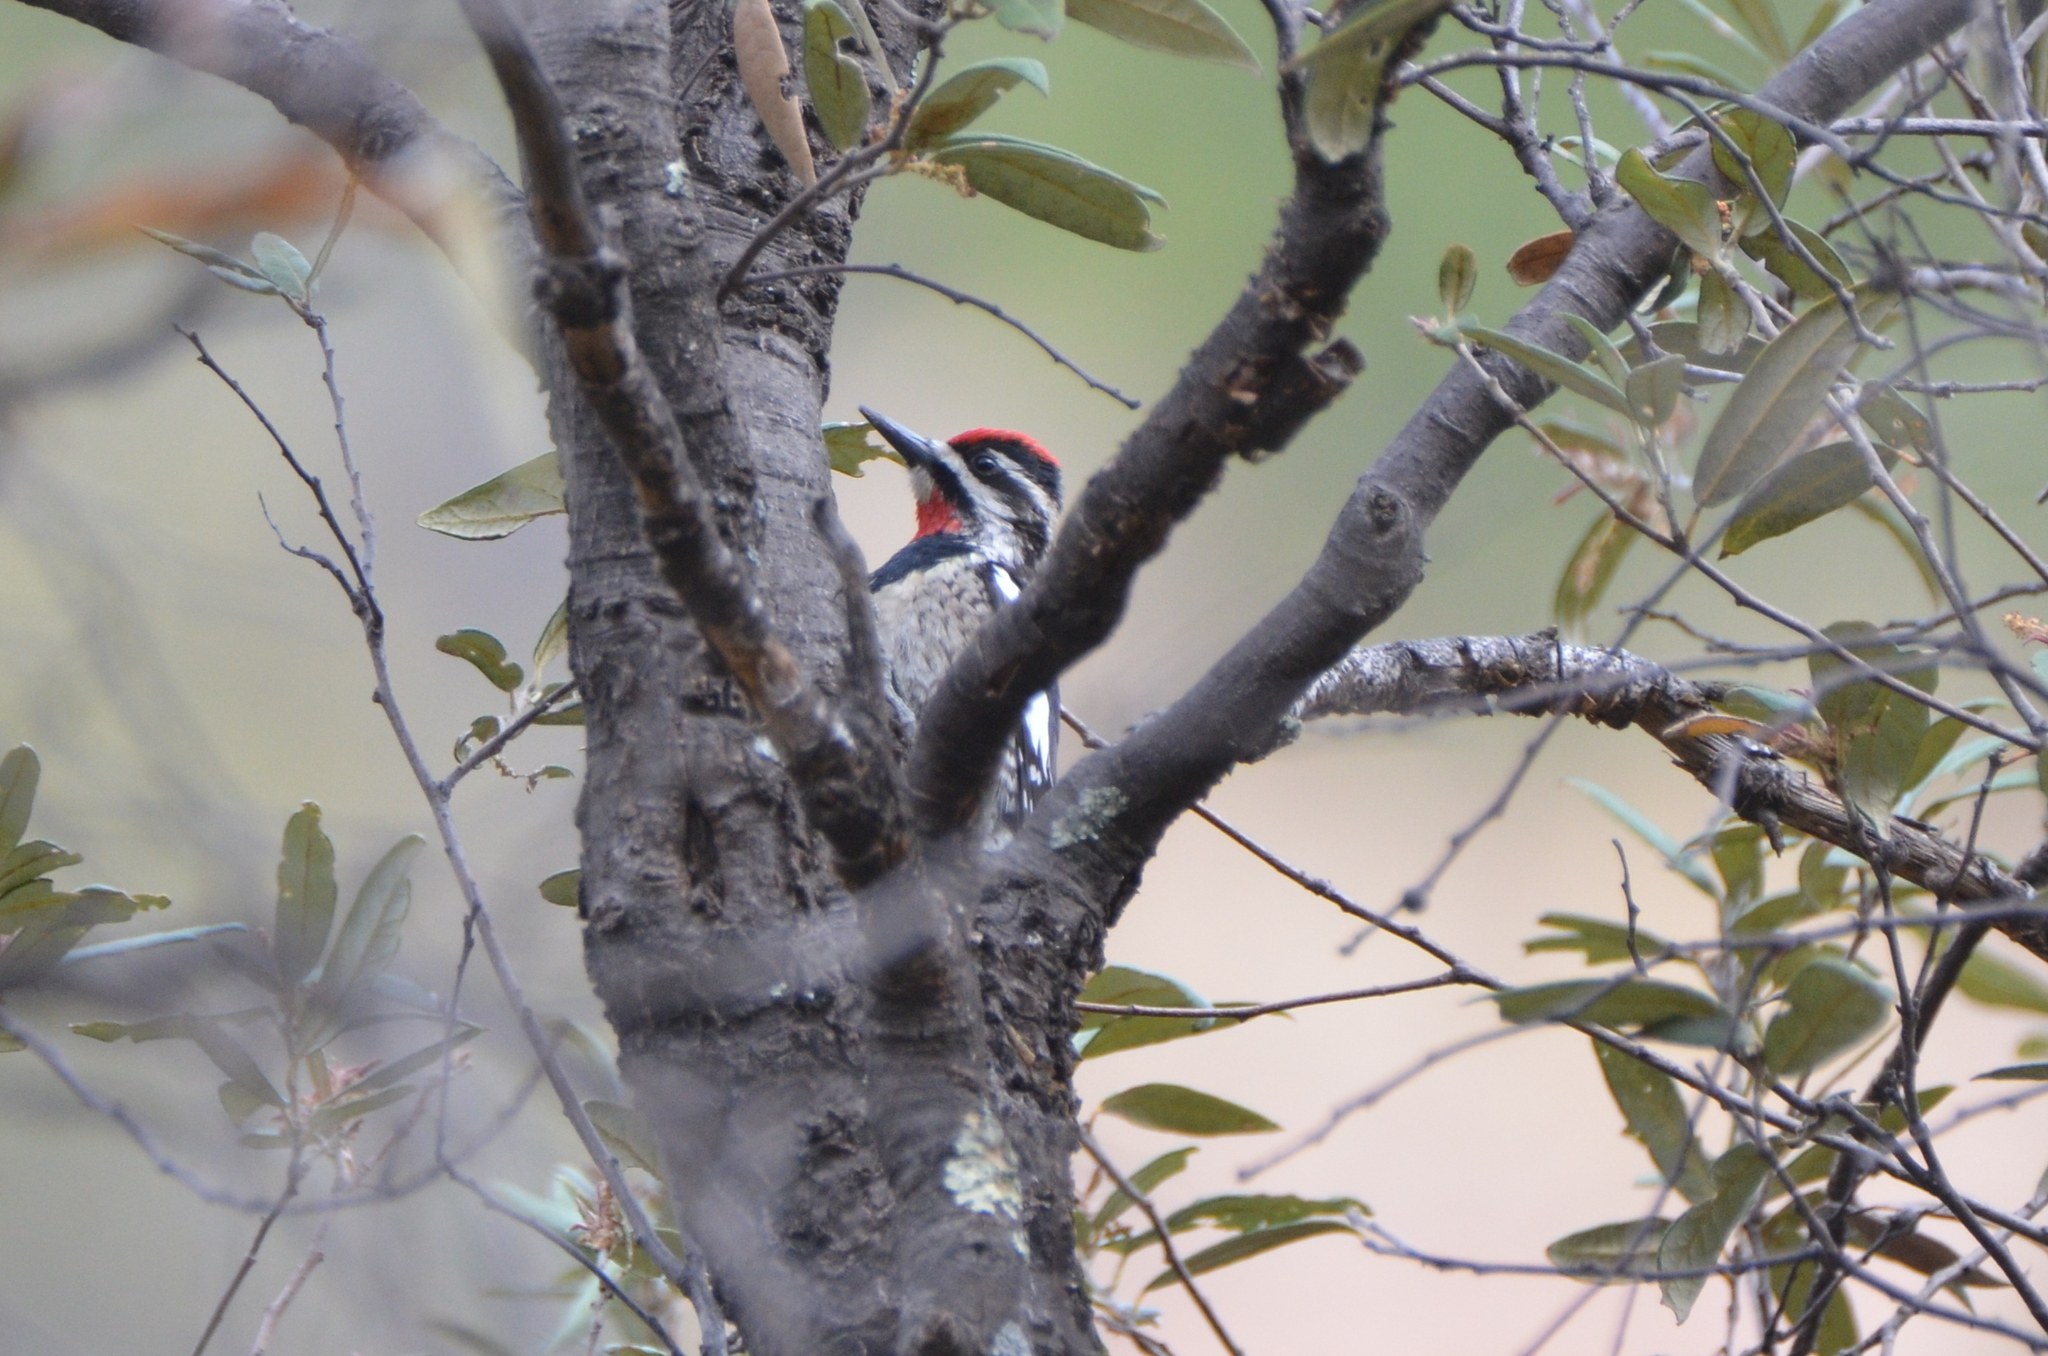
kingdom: Animalia
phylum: Chordata
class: Aves
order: Piciformes
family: Picidae
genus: Sphyrapicus
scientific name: Sphyrapicus nuchalis
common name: Red-naped sapsucker
